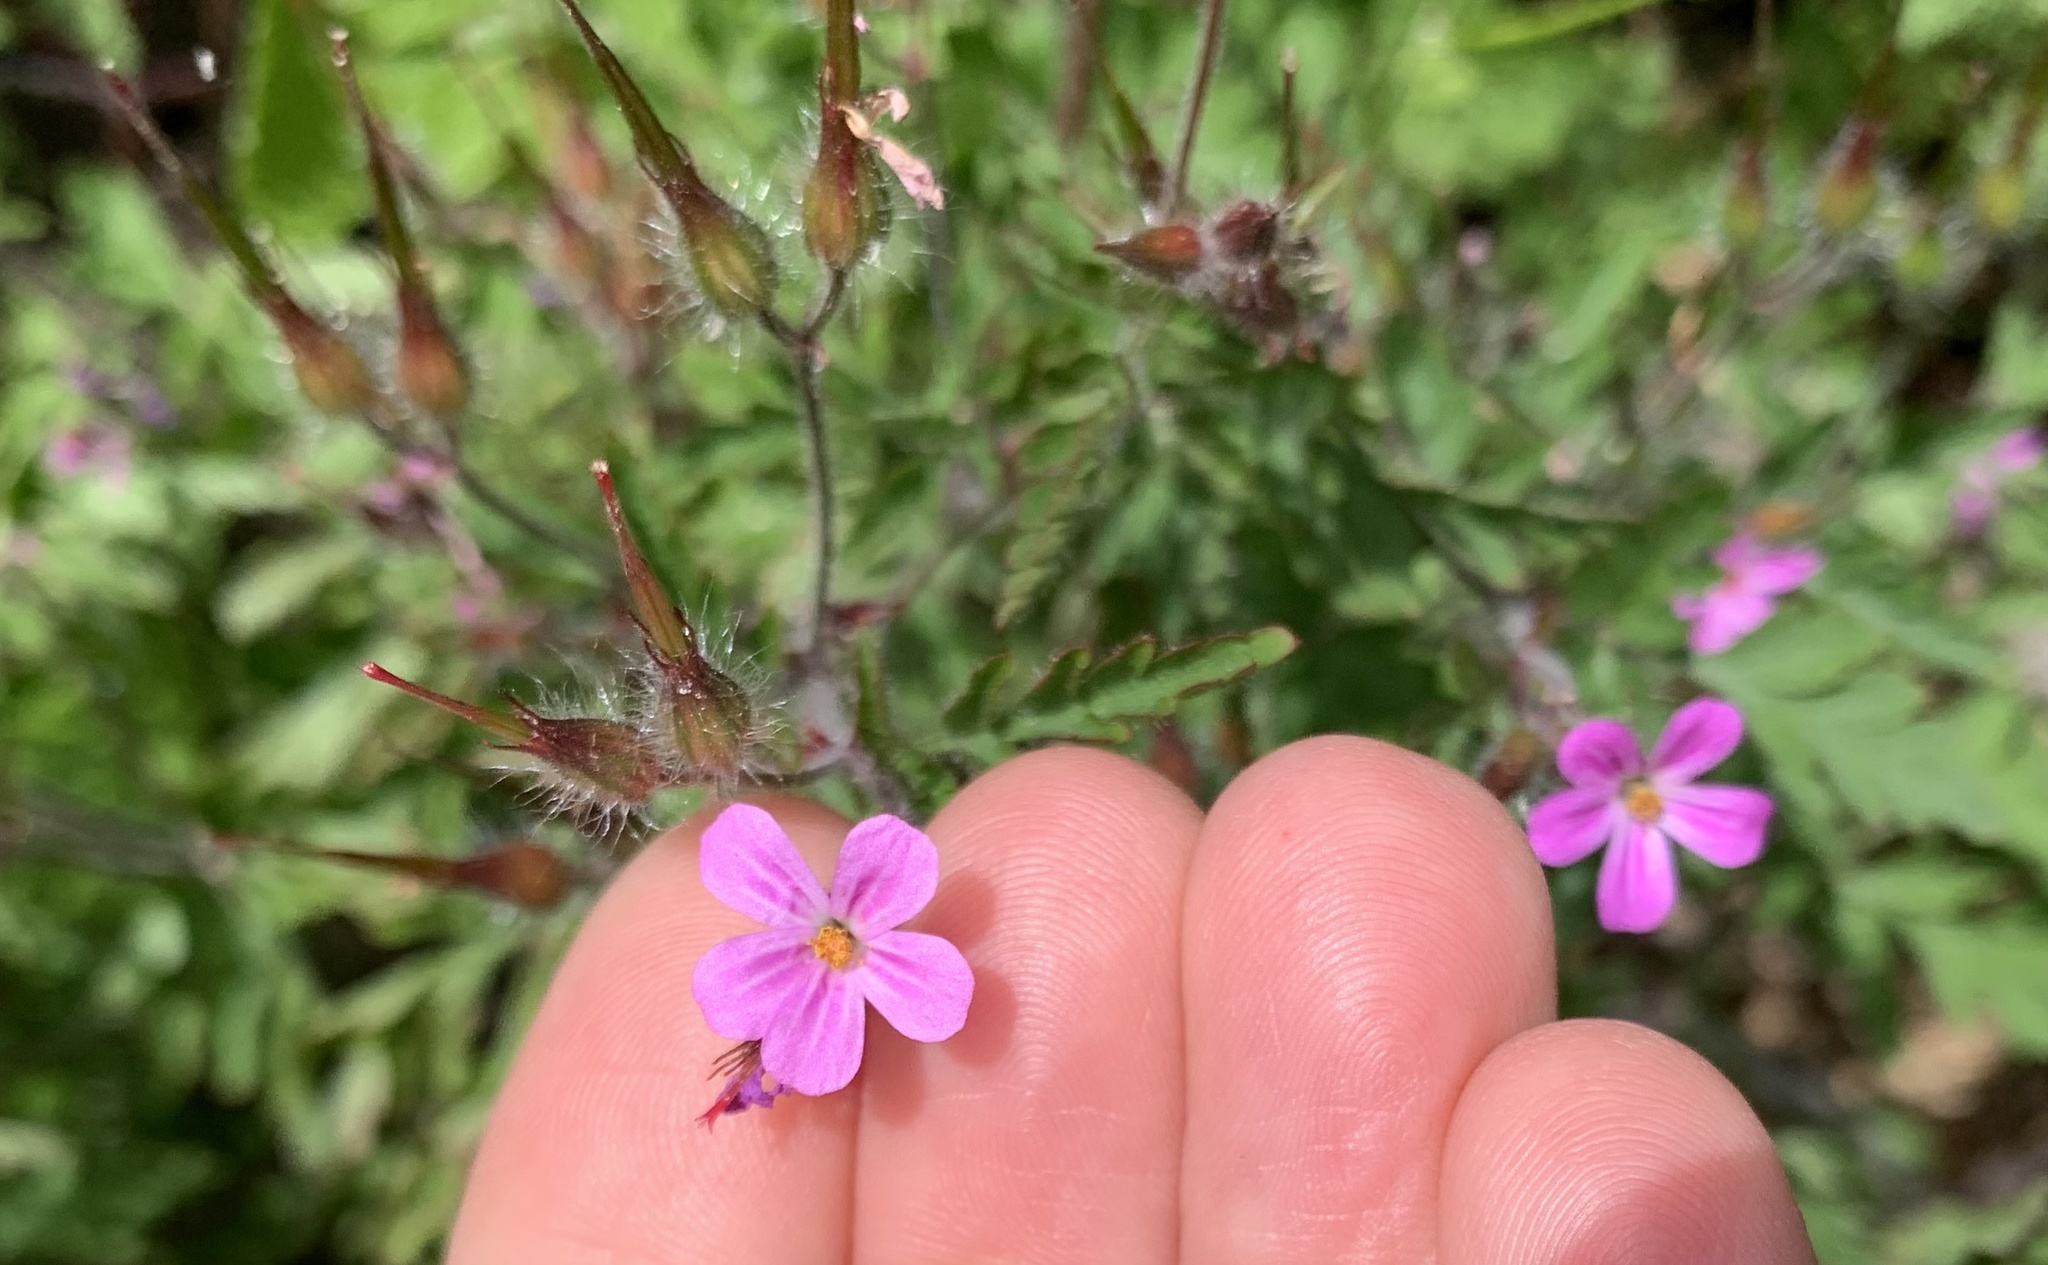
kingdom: Plantae
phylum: Tracheophyta
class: Magnoliopsida
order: Geraniales
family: Geraniaceae
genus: Geranium
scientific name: Geranium robertianum
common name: Herb-robert
